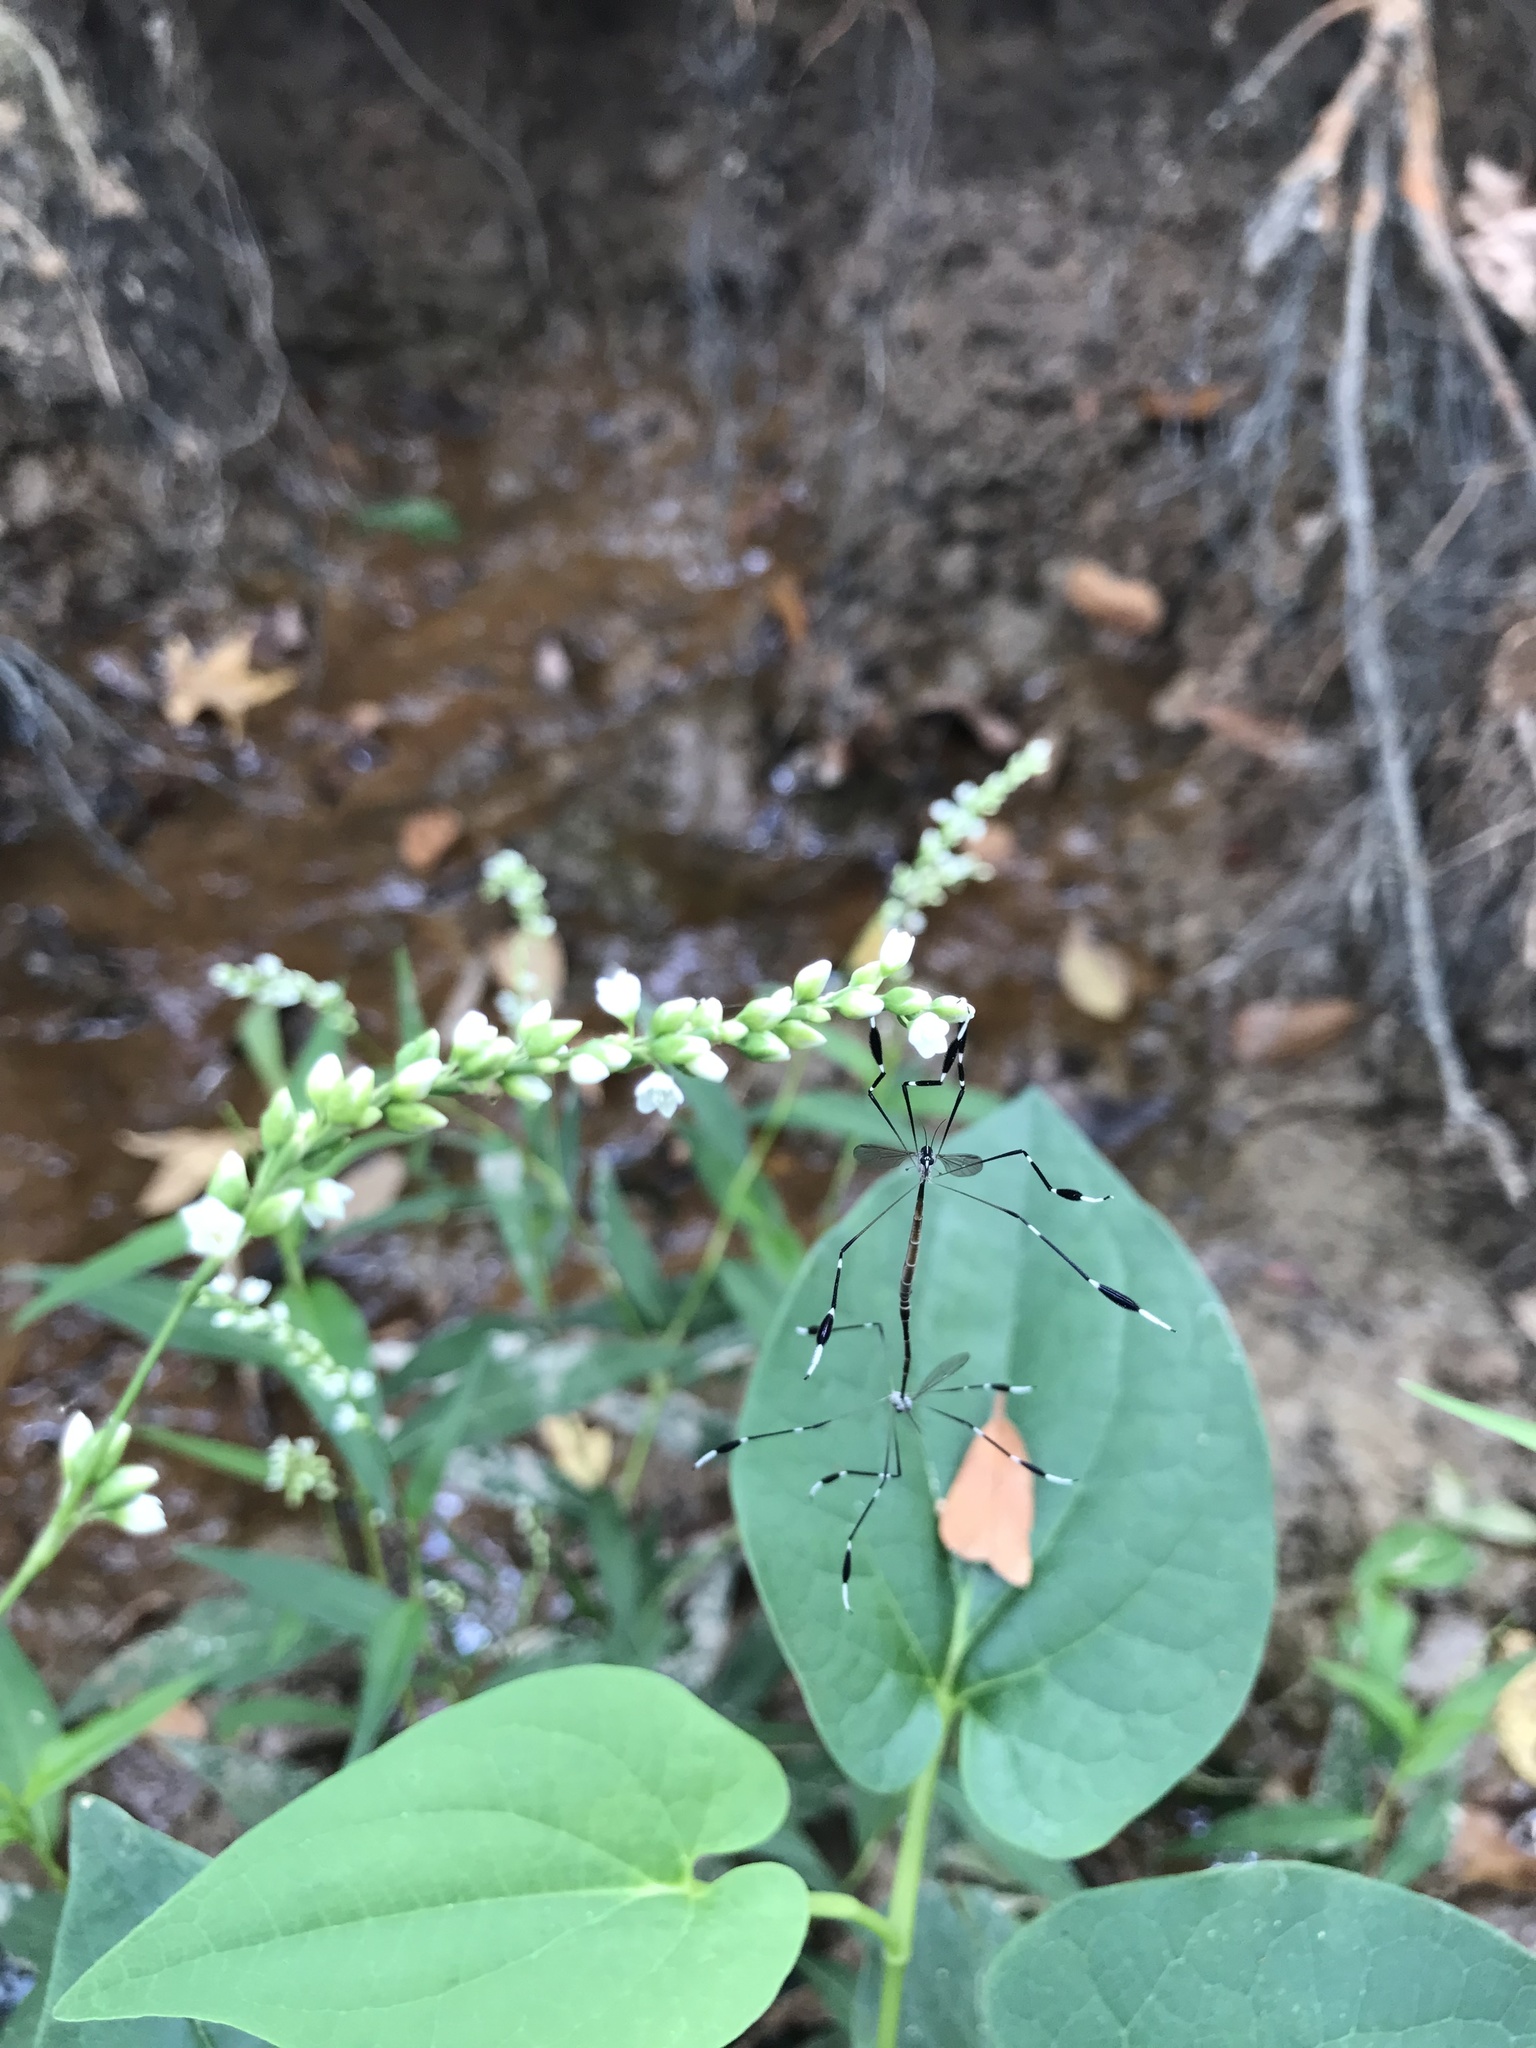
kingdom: Animalia
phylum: Arthropoda
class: Insecta
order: Diptera
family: Ptychopteridae
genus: Bittacomorpha
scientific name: Bittacomorpha clavipes
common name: Eastern phantom crane fly
